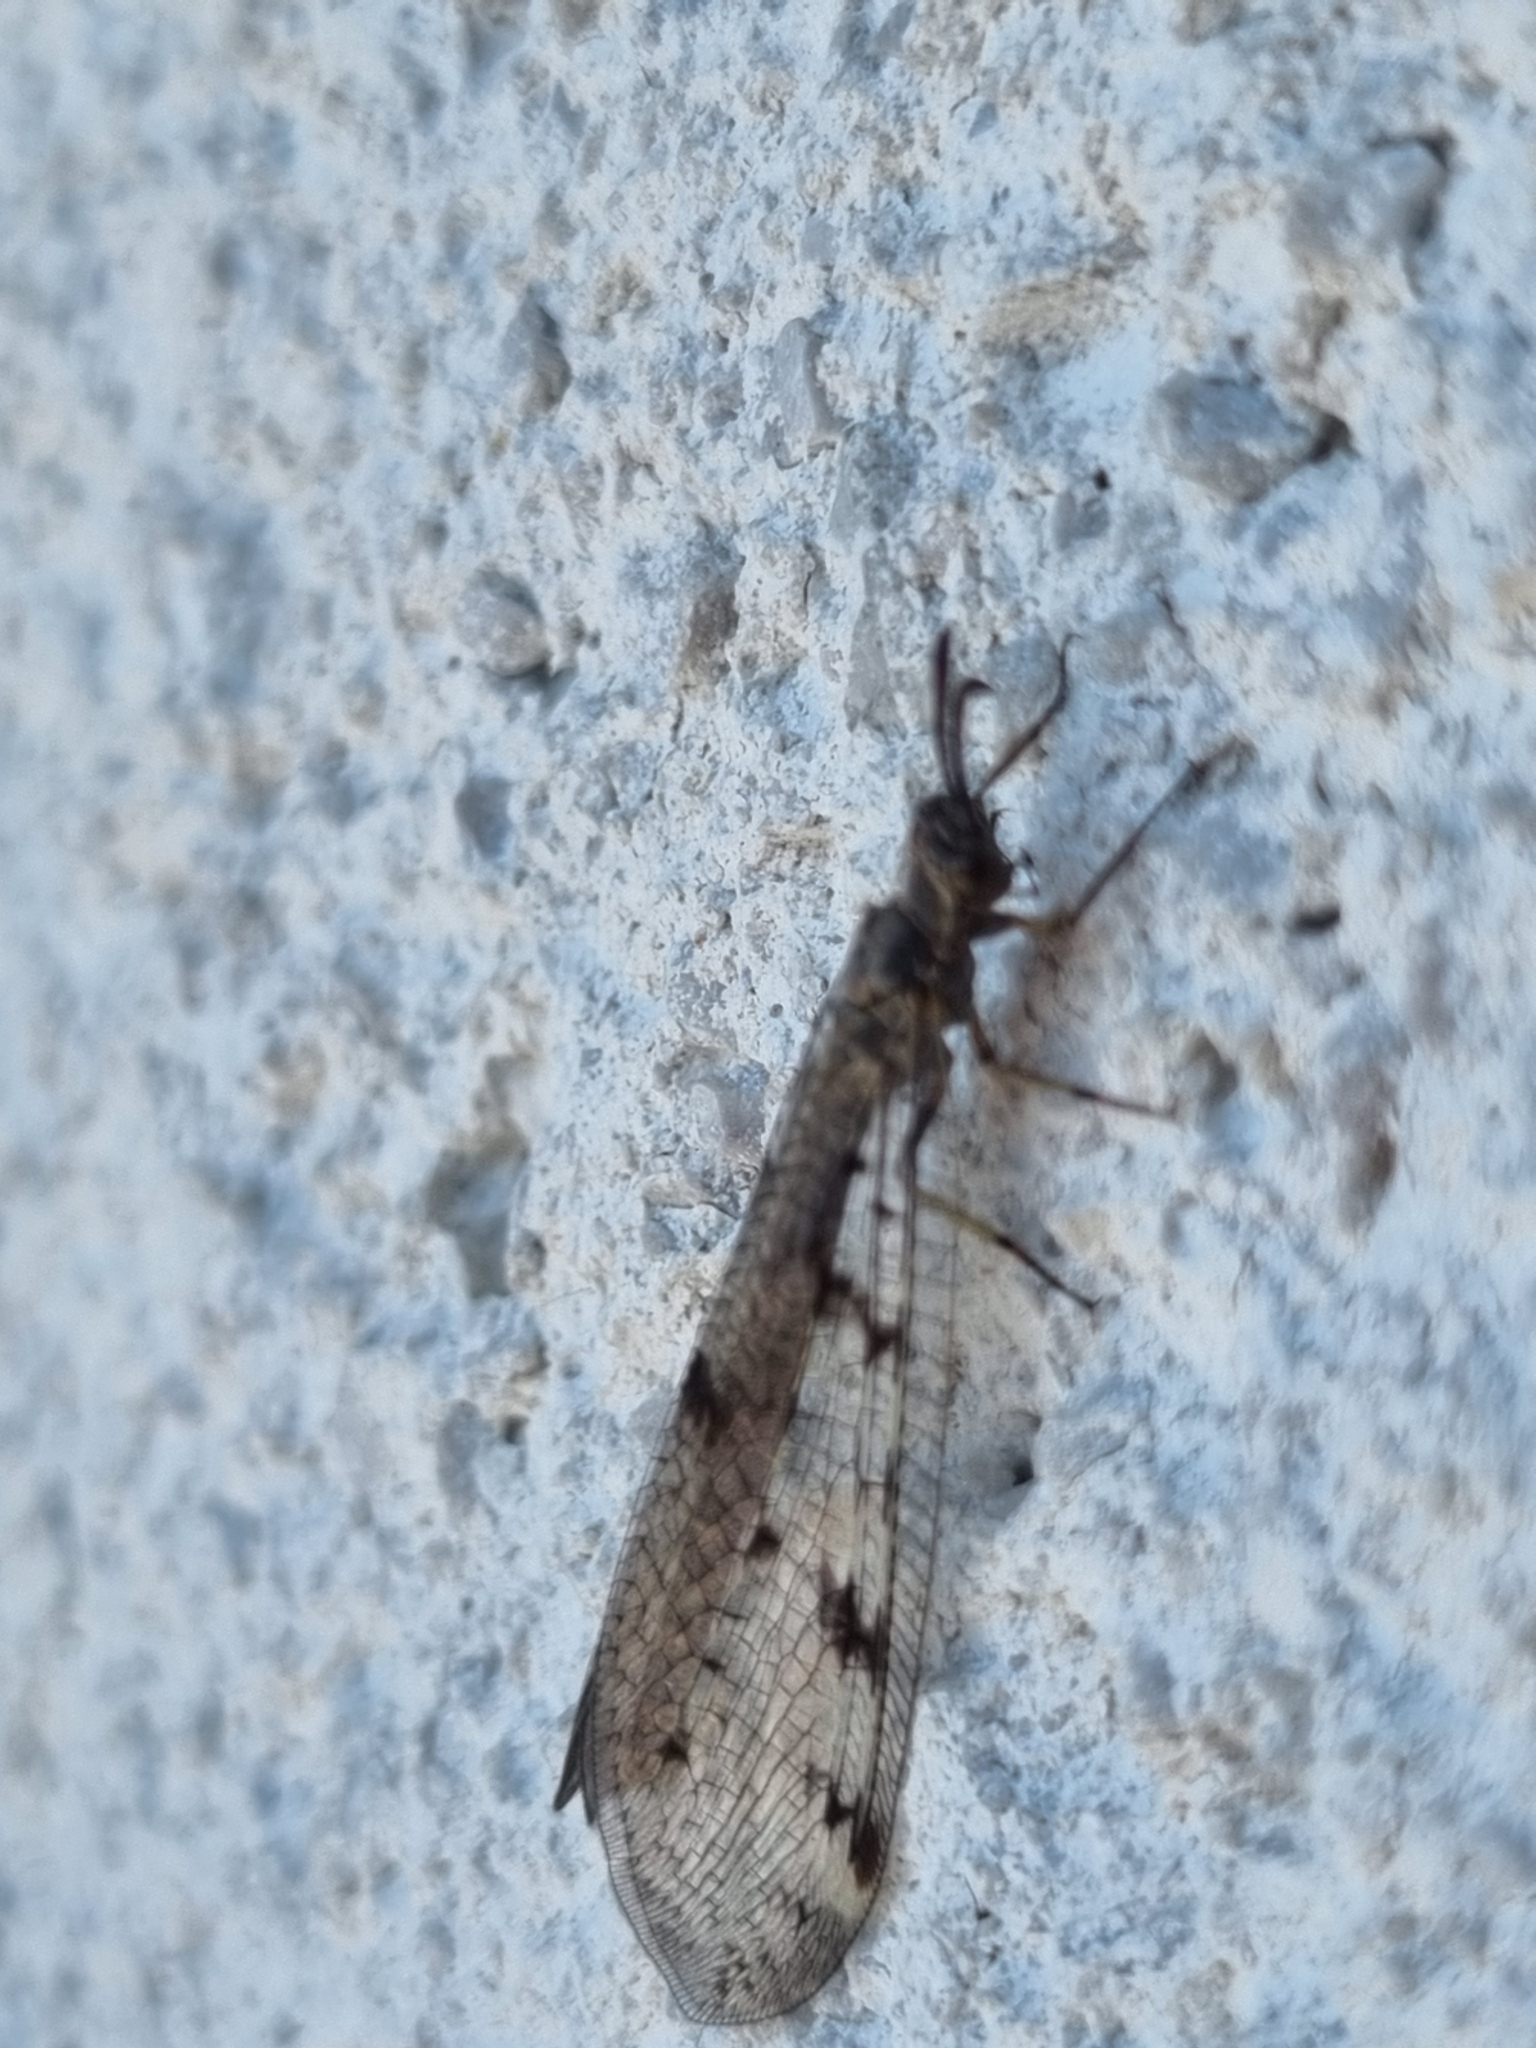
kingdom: Animalia
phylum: Arthropoda
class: Insecta
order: Neuroptera
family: Myrmeleontidae
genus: Euroleon
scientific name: Euroleon nostras
